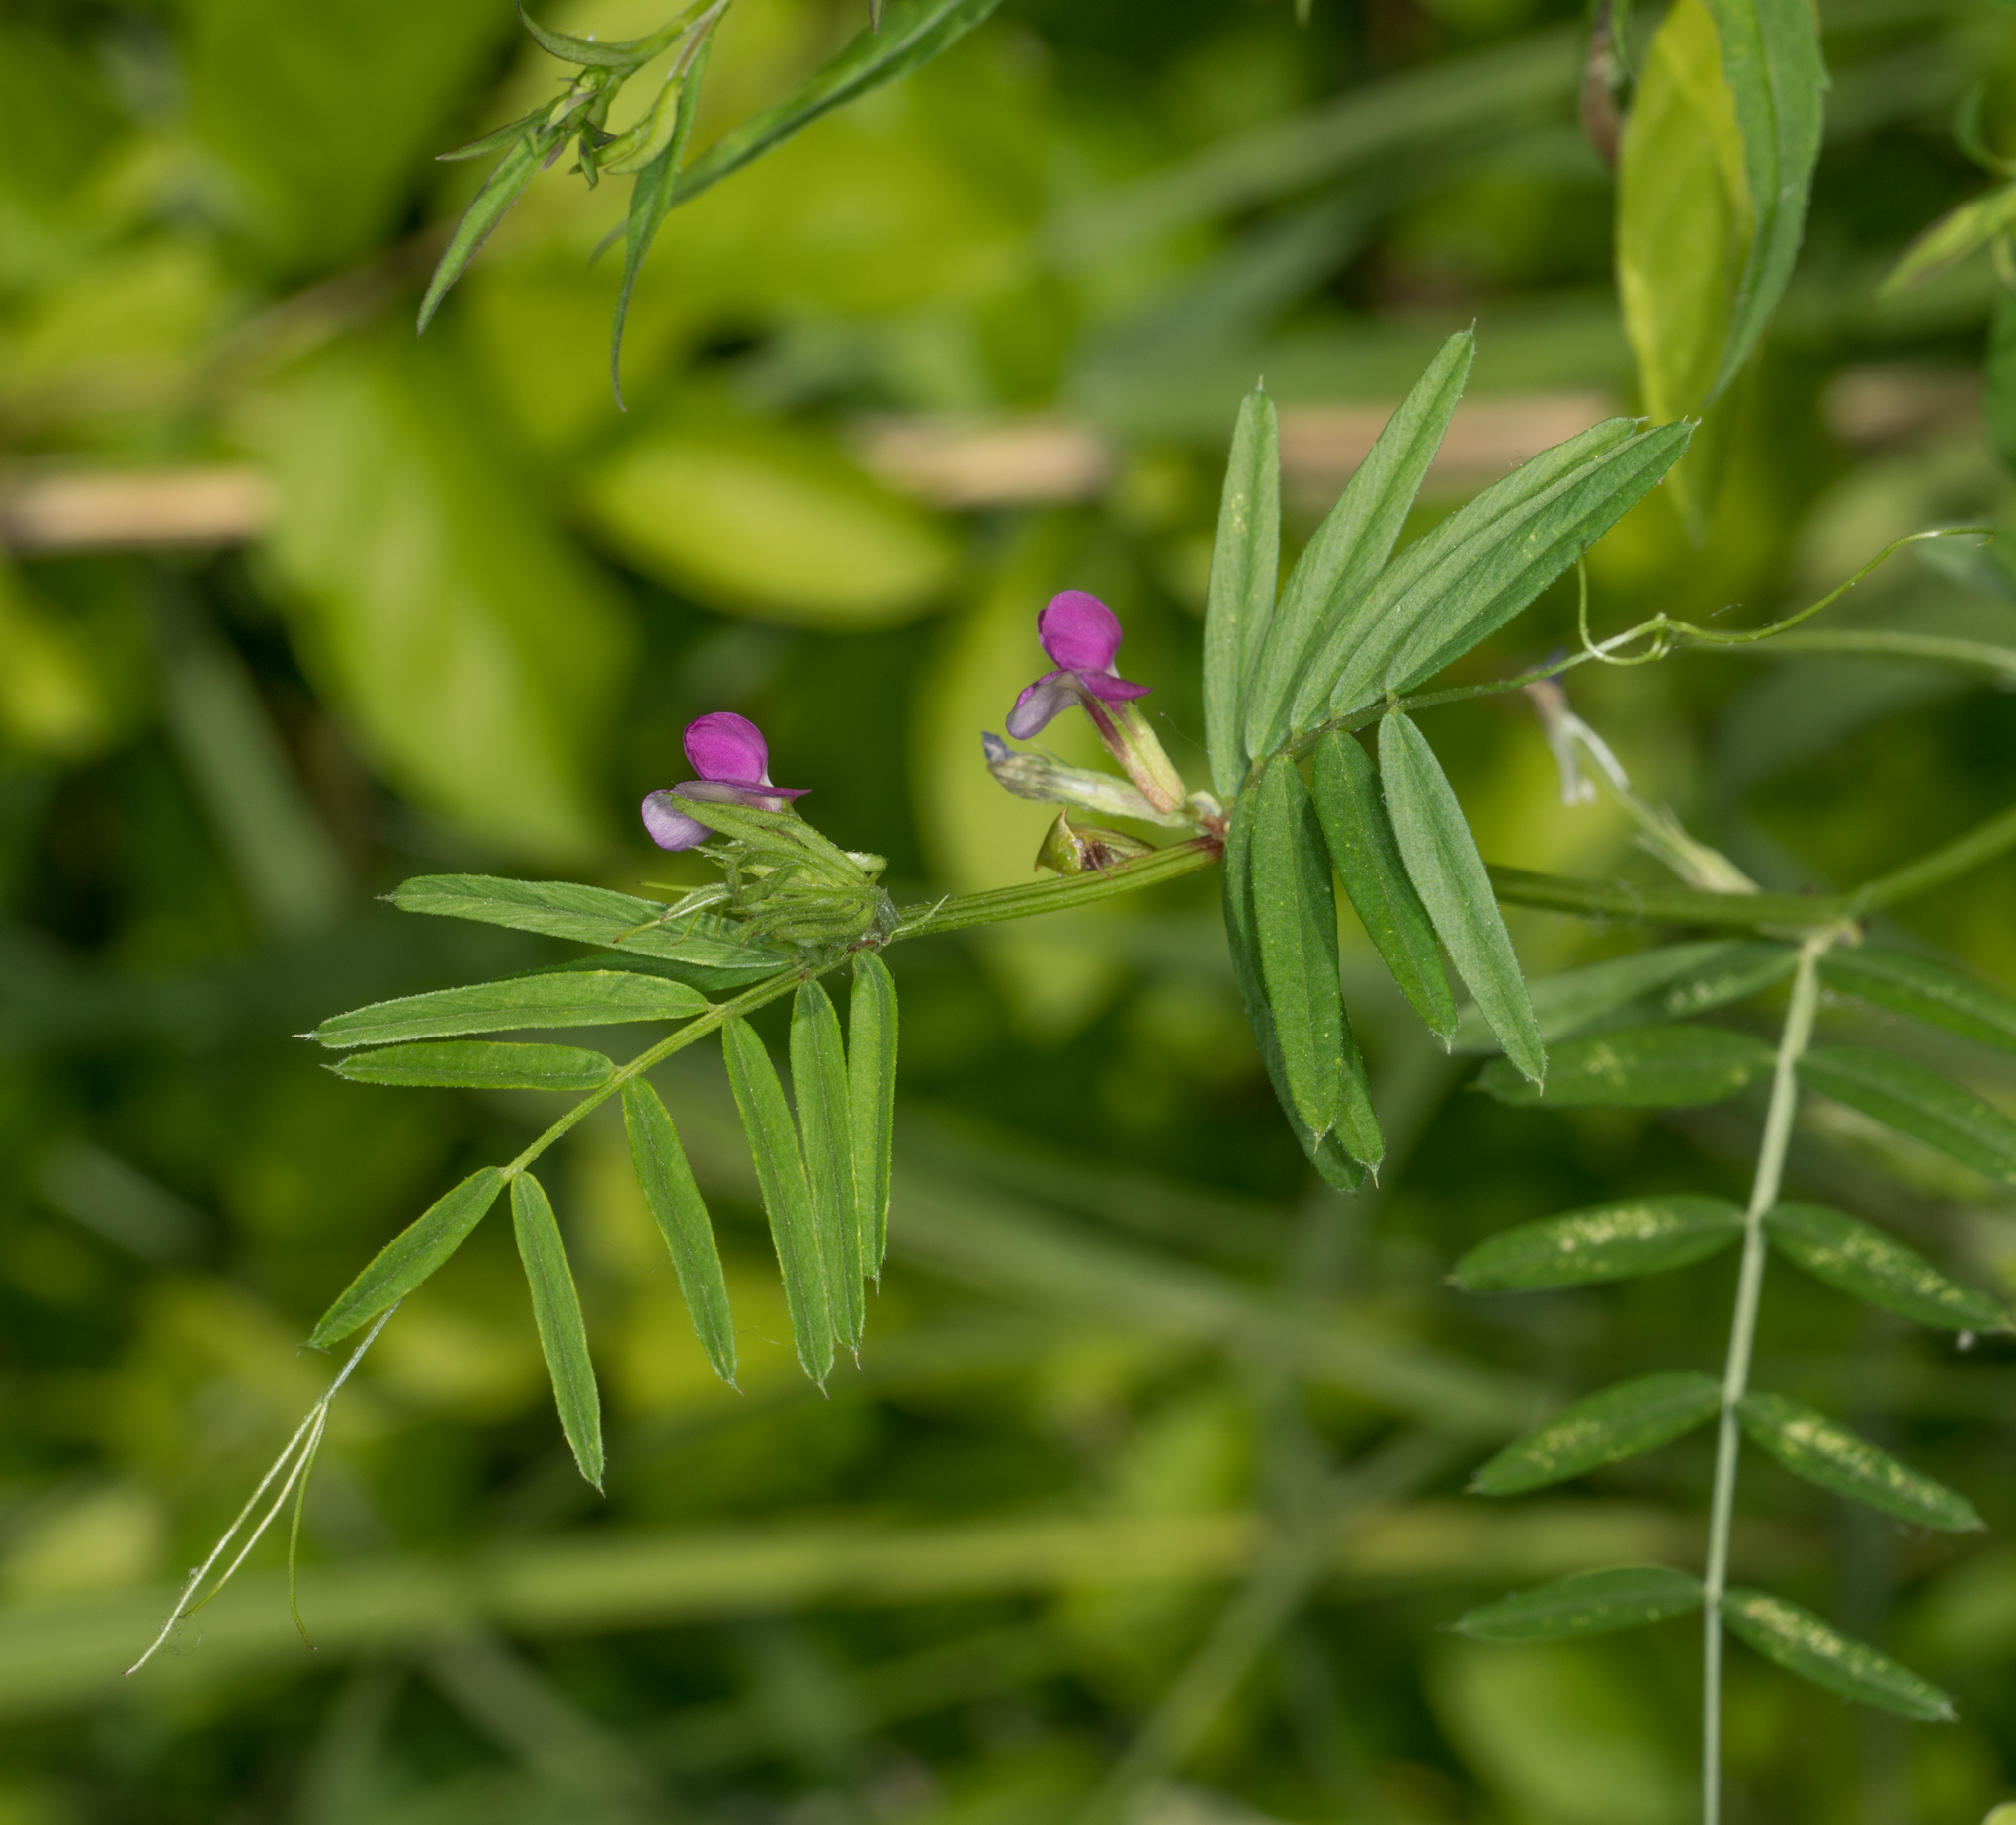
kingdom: Plantae
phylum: Tracheophyta
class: Magnoliopsida
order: Fabales
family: Fabaceae
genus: Vicia
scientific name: Vicia sativa
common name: Garden vetch
